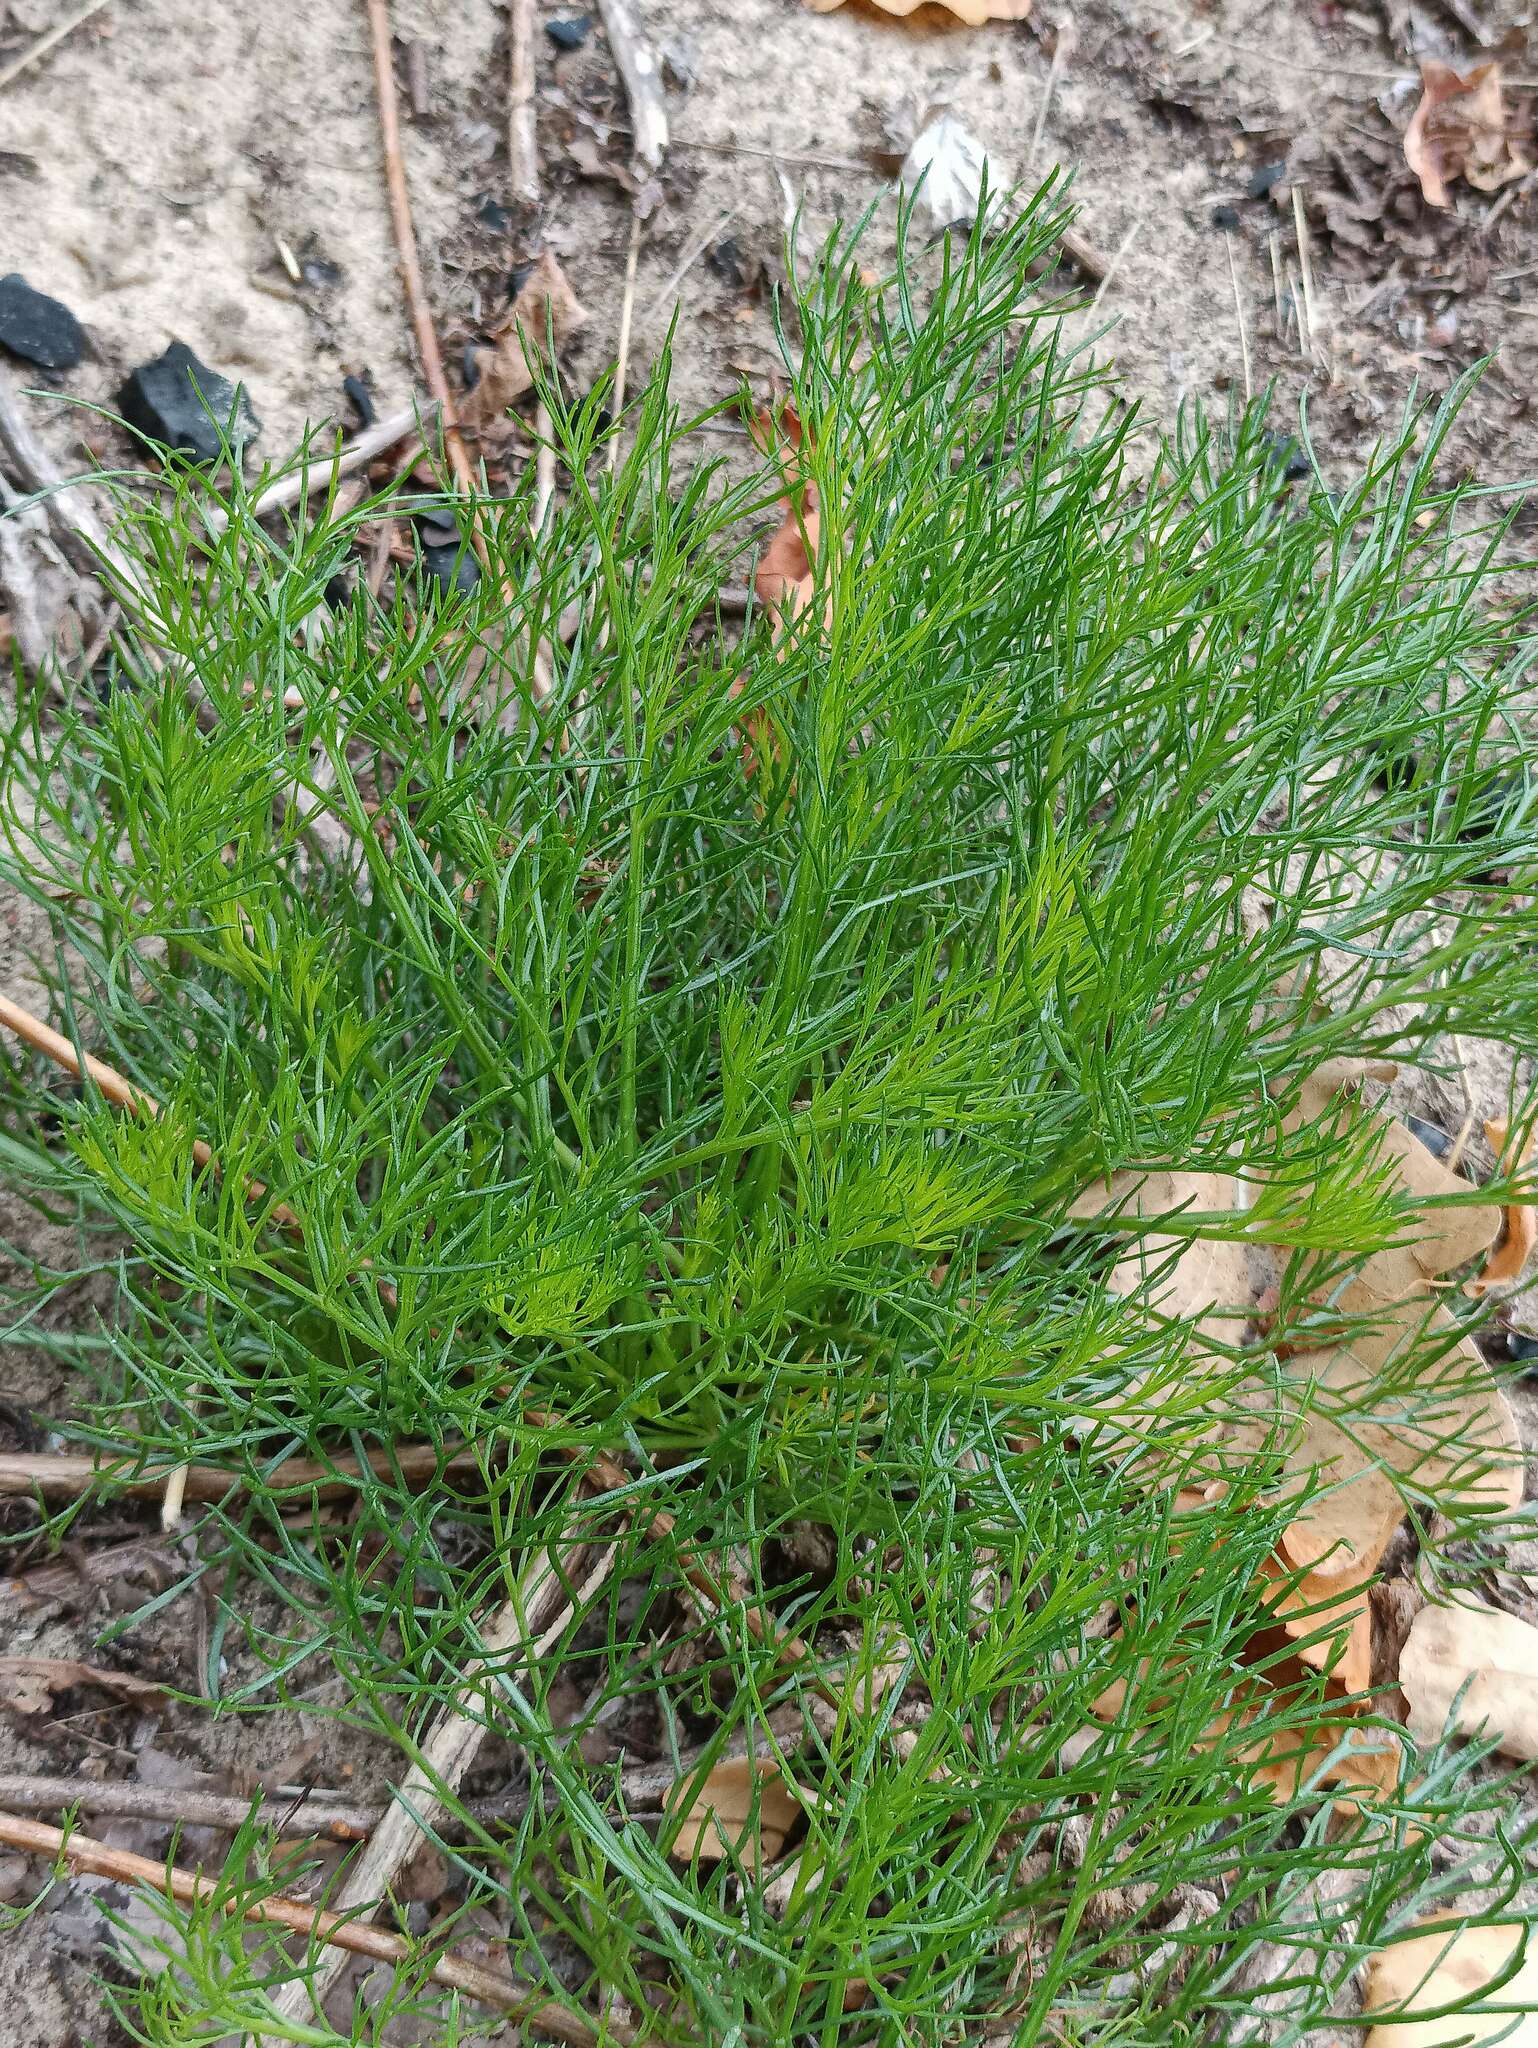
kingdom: Plantae
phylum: Tracheophyta
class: Magnoliopsida
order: Asterales
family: Asteraceae
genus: Tripleurospermum
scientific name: Tripleurospermum inodorum
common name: Scentless mayweed
